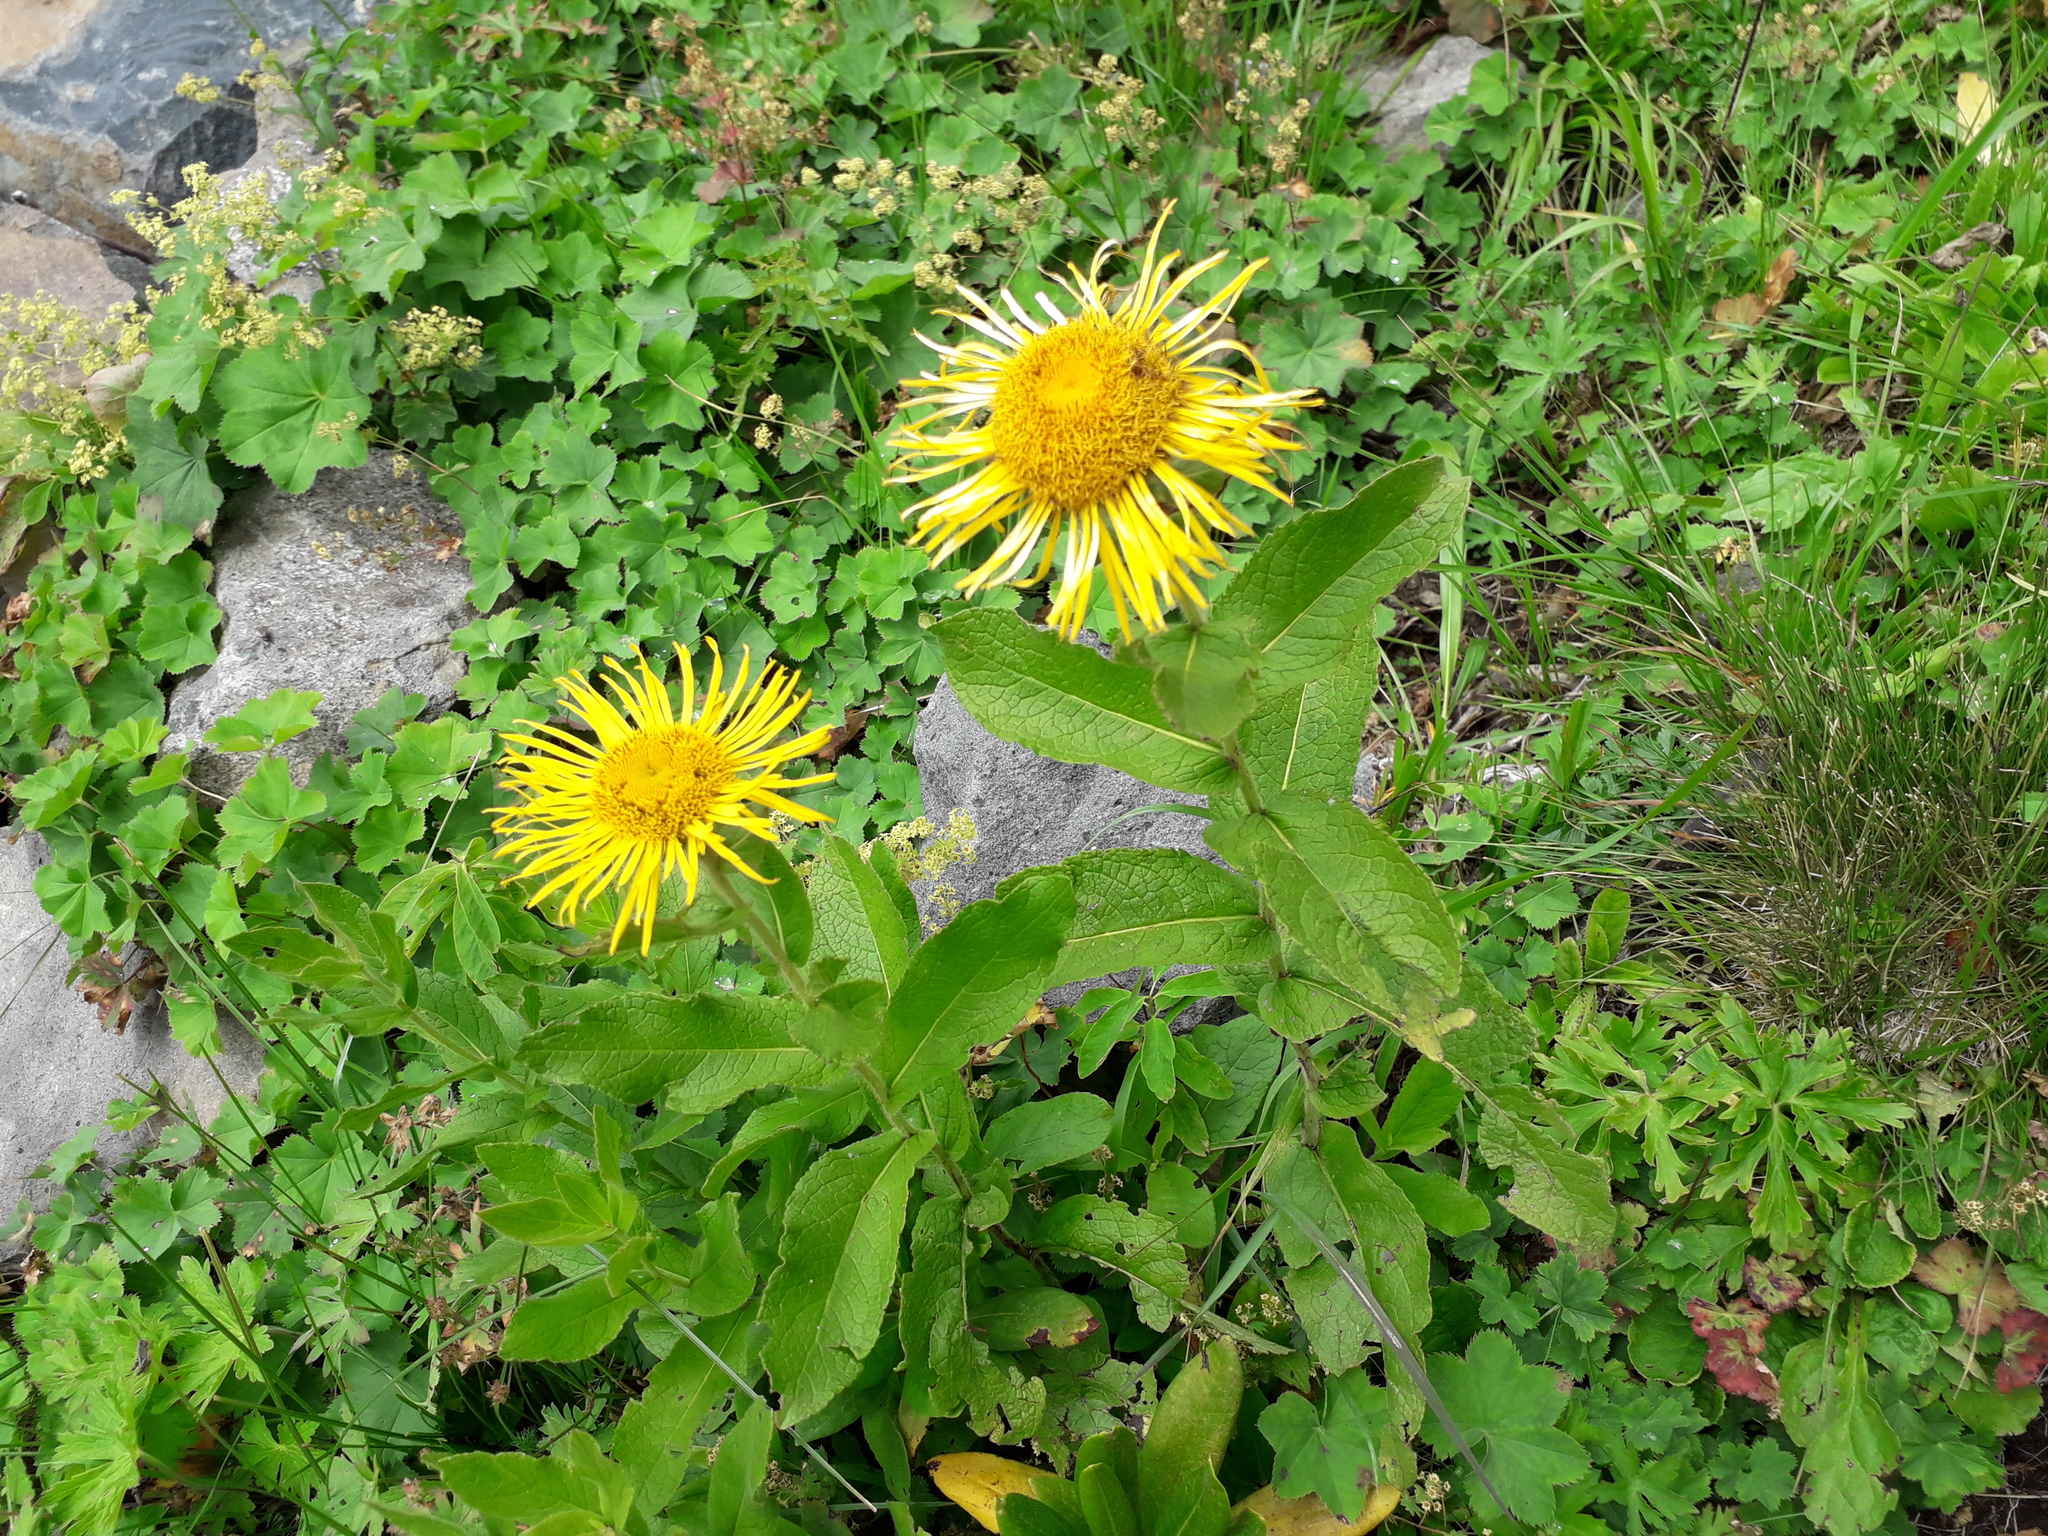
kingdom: Plantae
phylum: Tracheophyta
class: Magnoliopsida
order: Asterales
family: Asteraceae
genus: Pentanema
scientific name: Pentanema orientale
